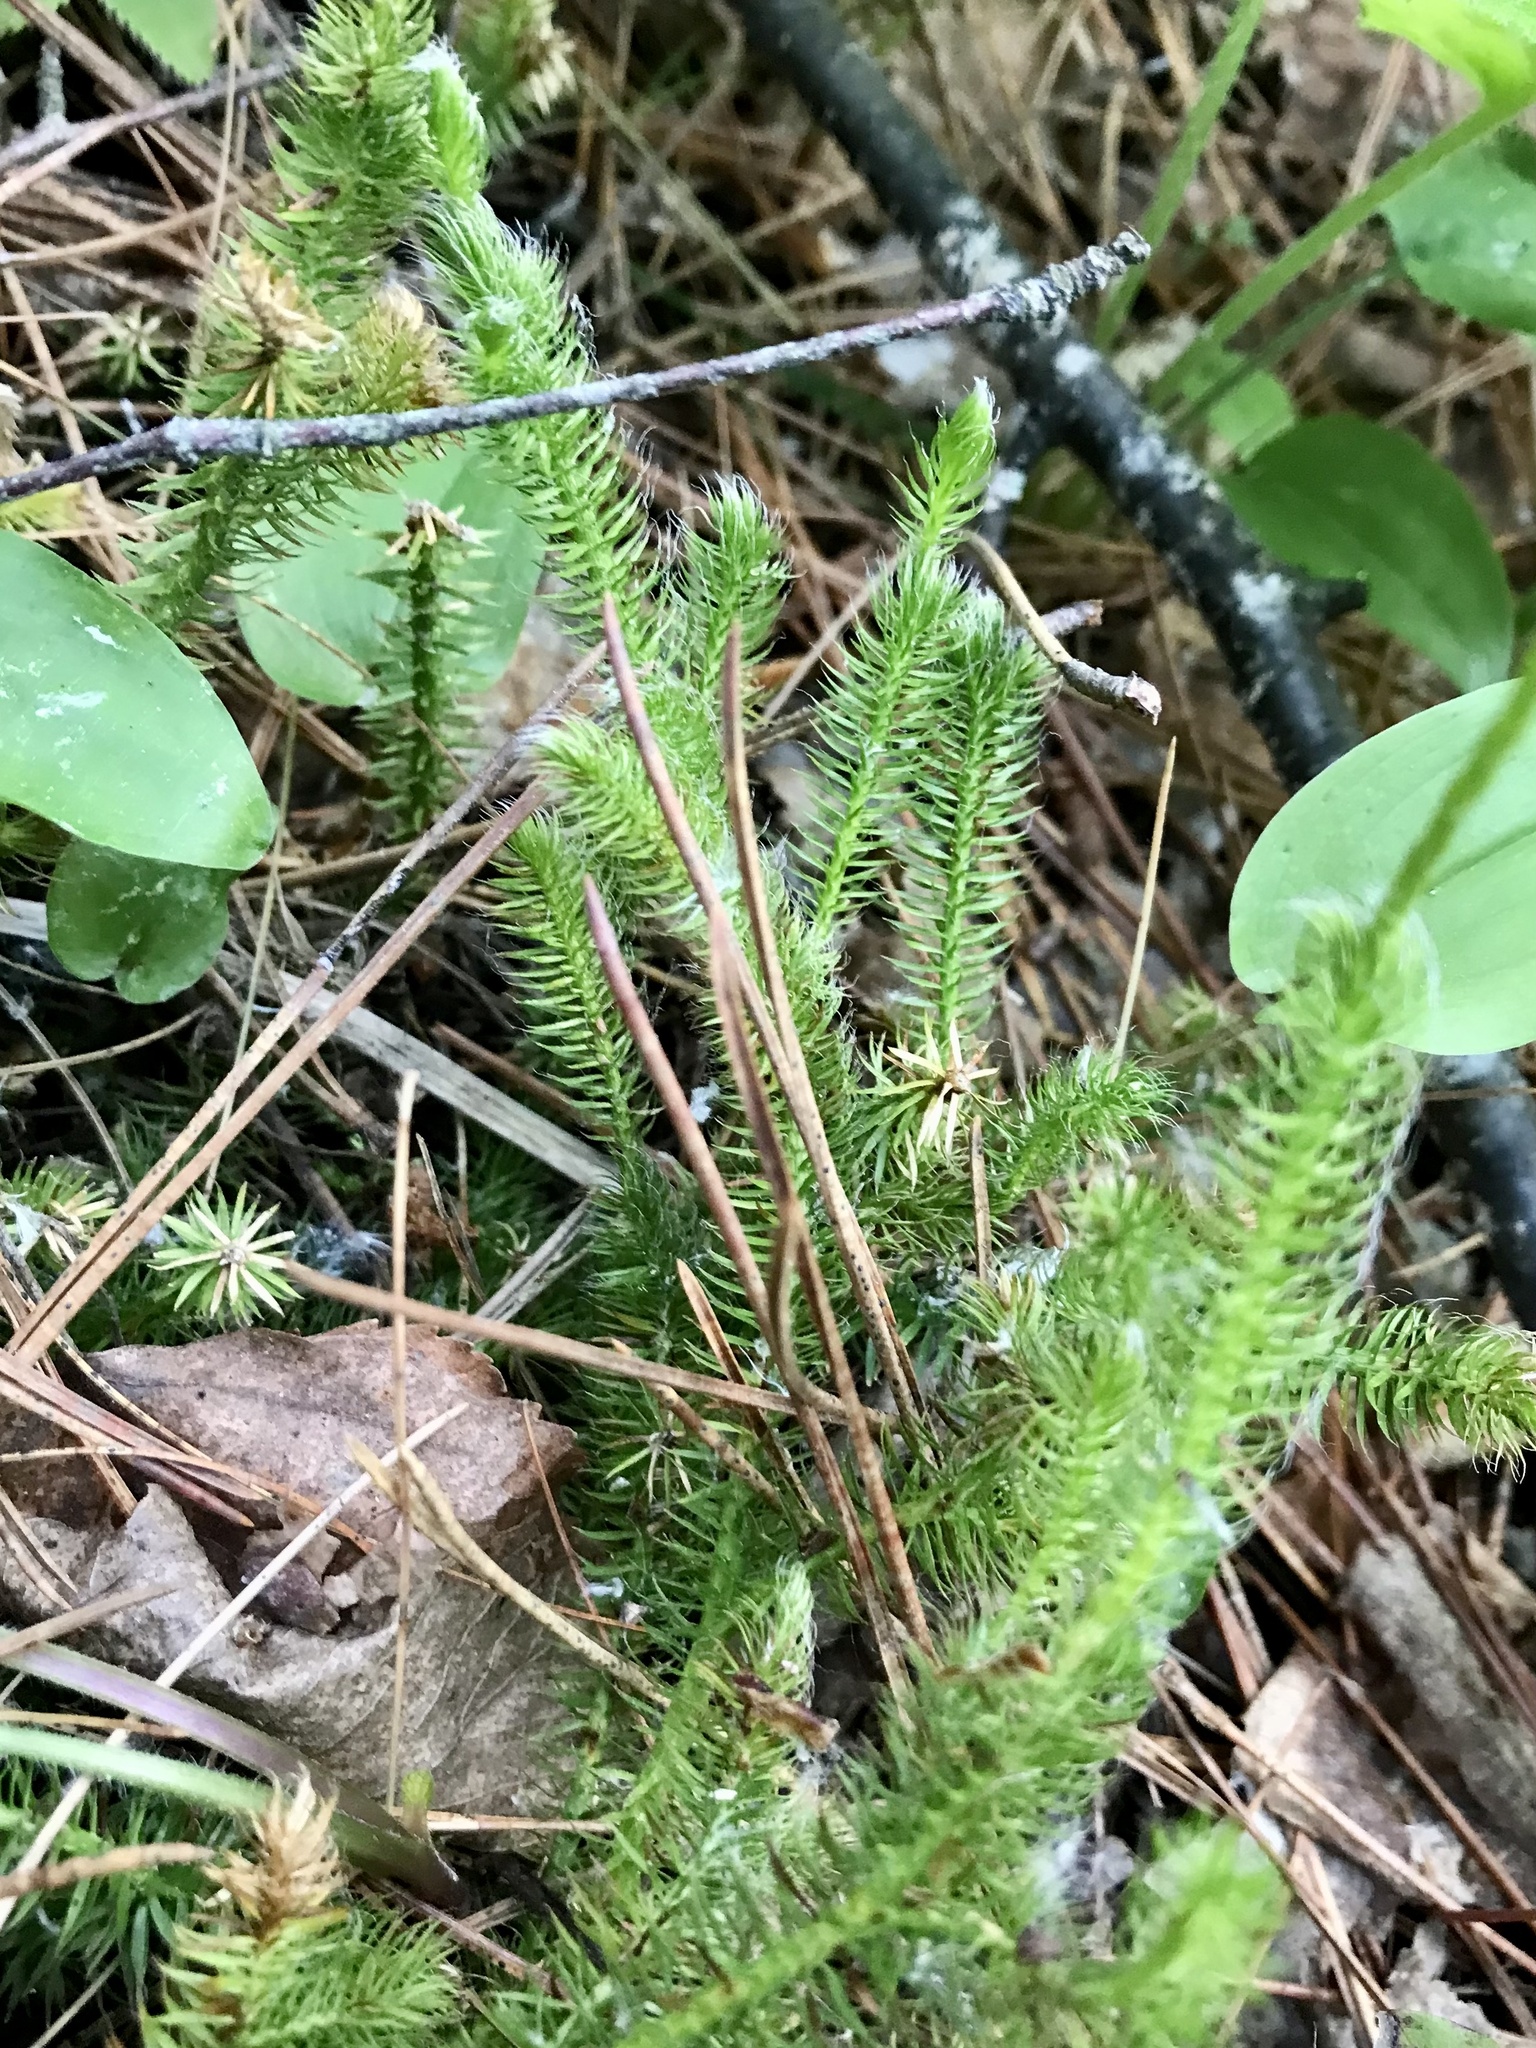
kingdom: Plantae
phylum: Tracheophyta
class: Lycopodiopsida
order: Lycopodiales
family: Lycopodiaceae
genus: Lycopodium
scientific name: Lycopodium clavatum
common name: Stag's-horn clubmoss
